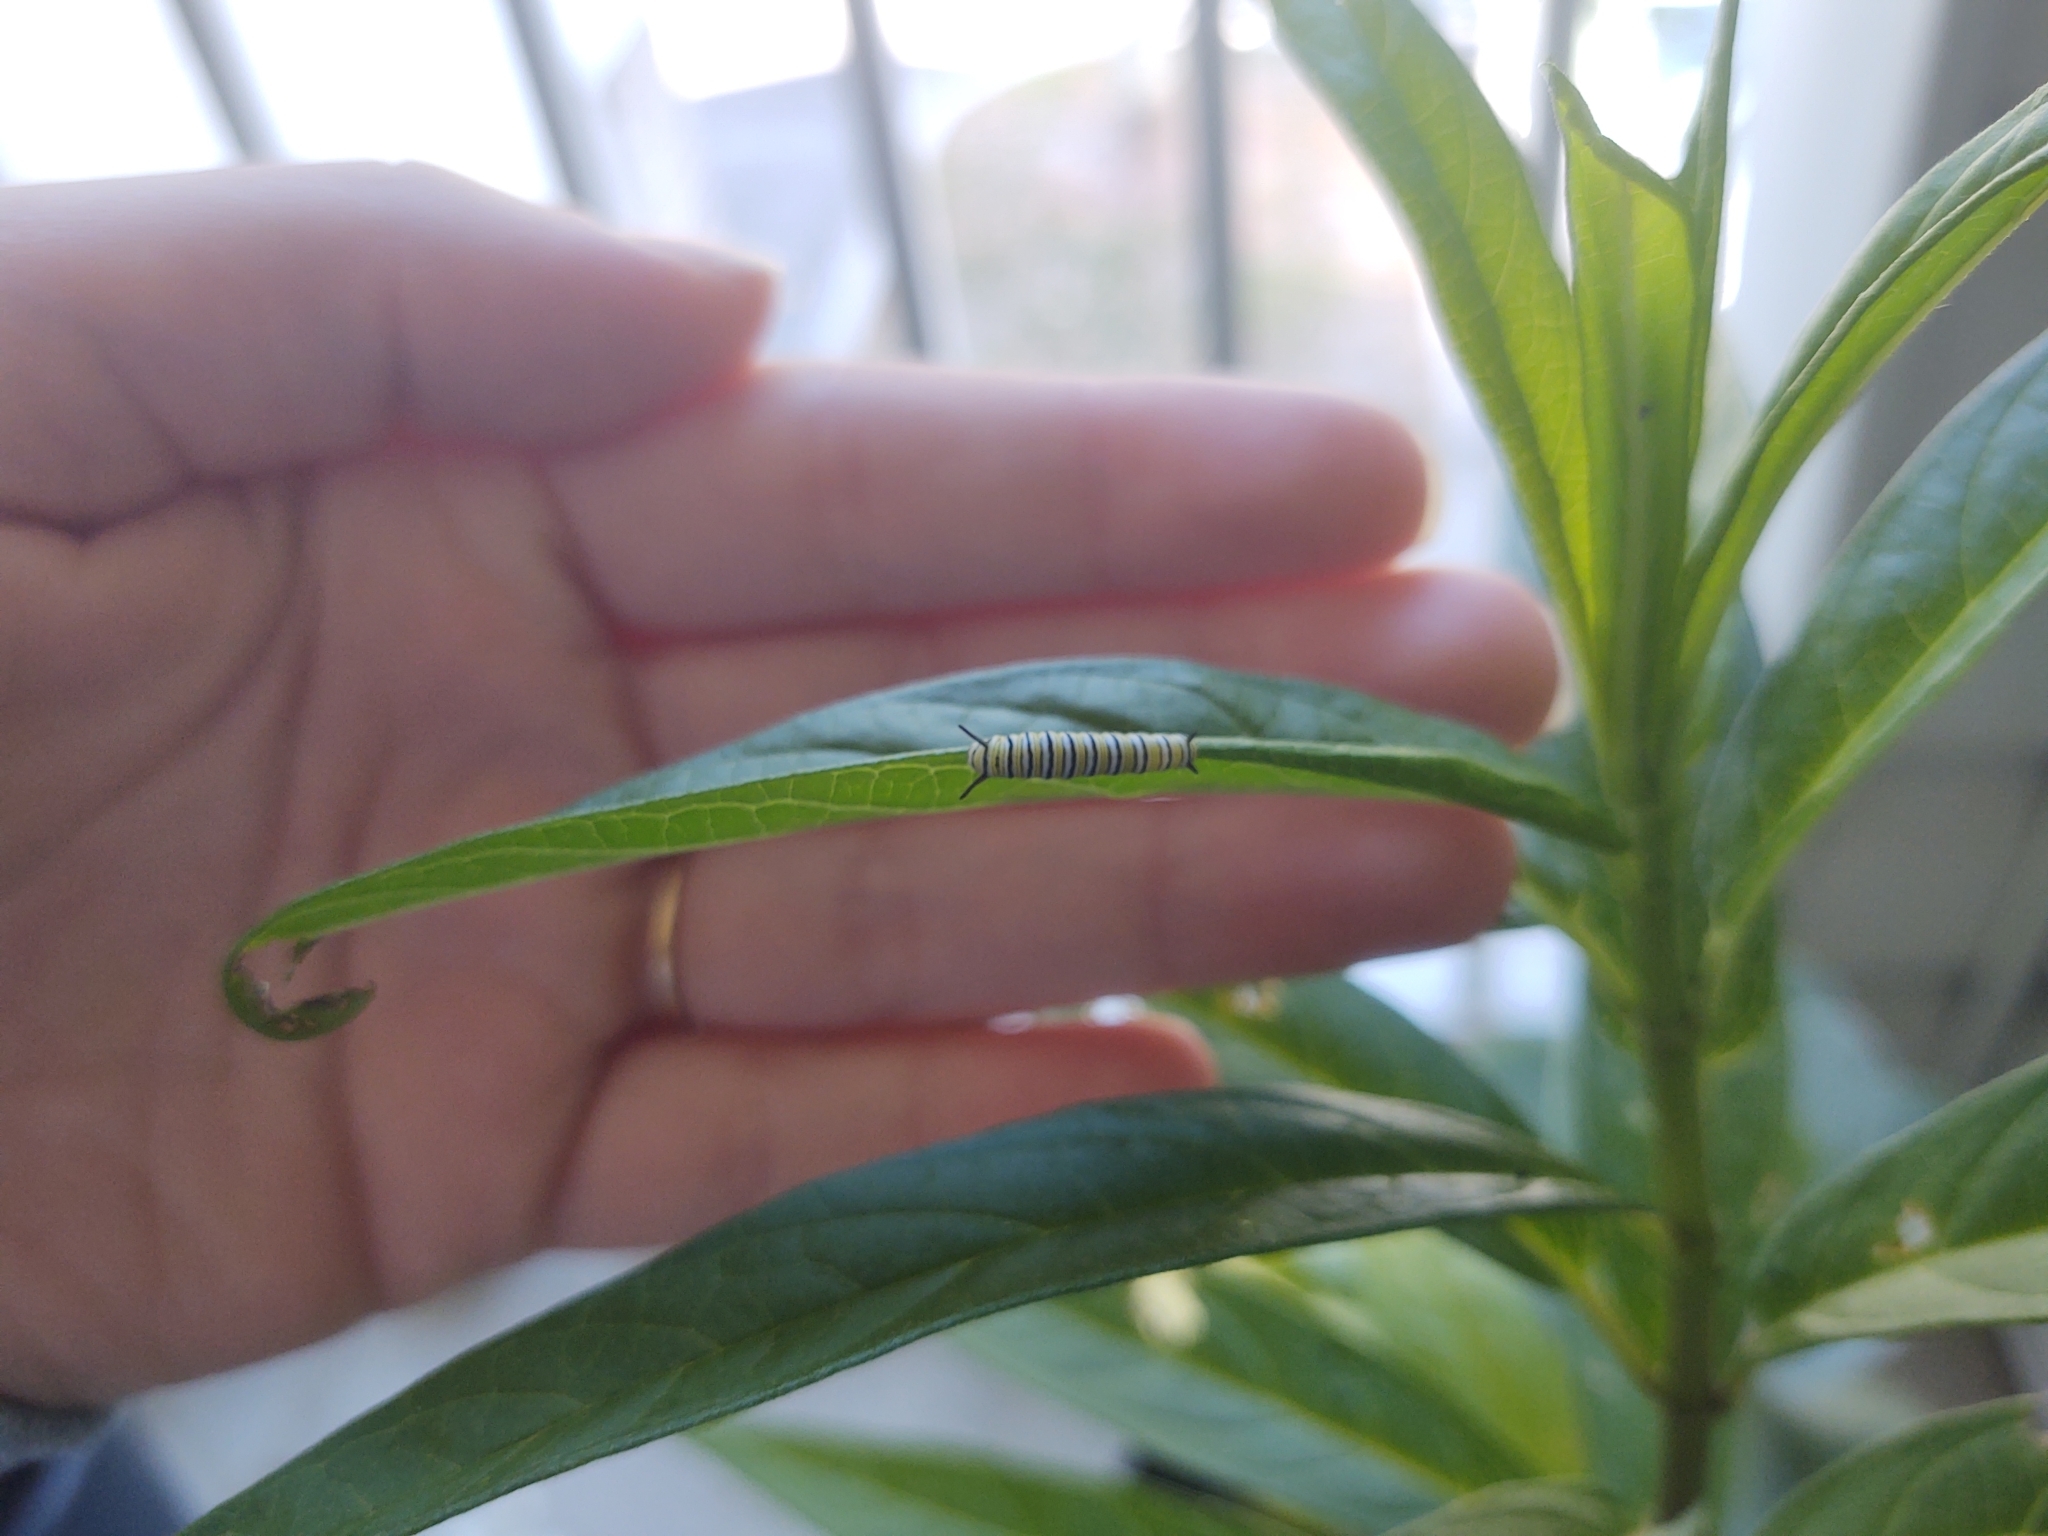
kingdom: Animalia
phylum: Arthropoda
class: Insecta
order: Lepidoptera
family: Nymphalidae
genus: Danaus
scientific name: Danaus plexippus
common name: Monarch
